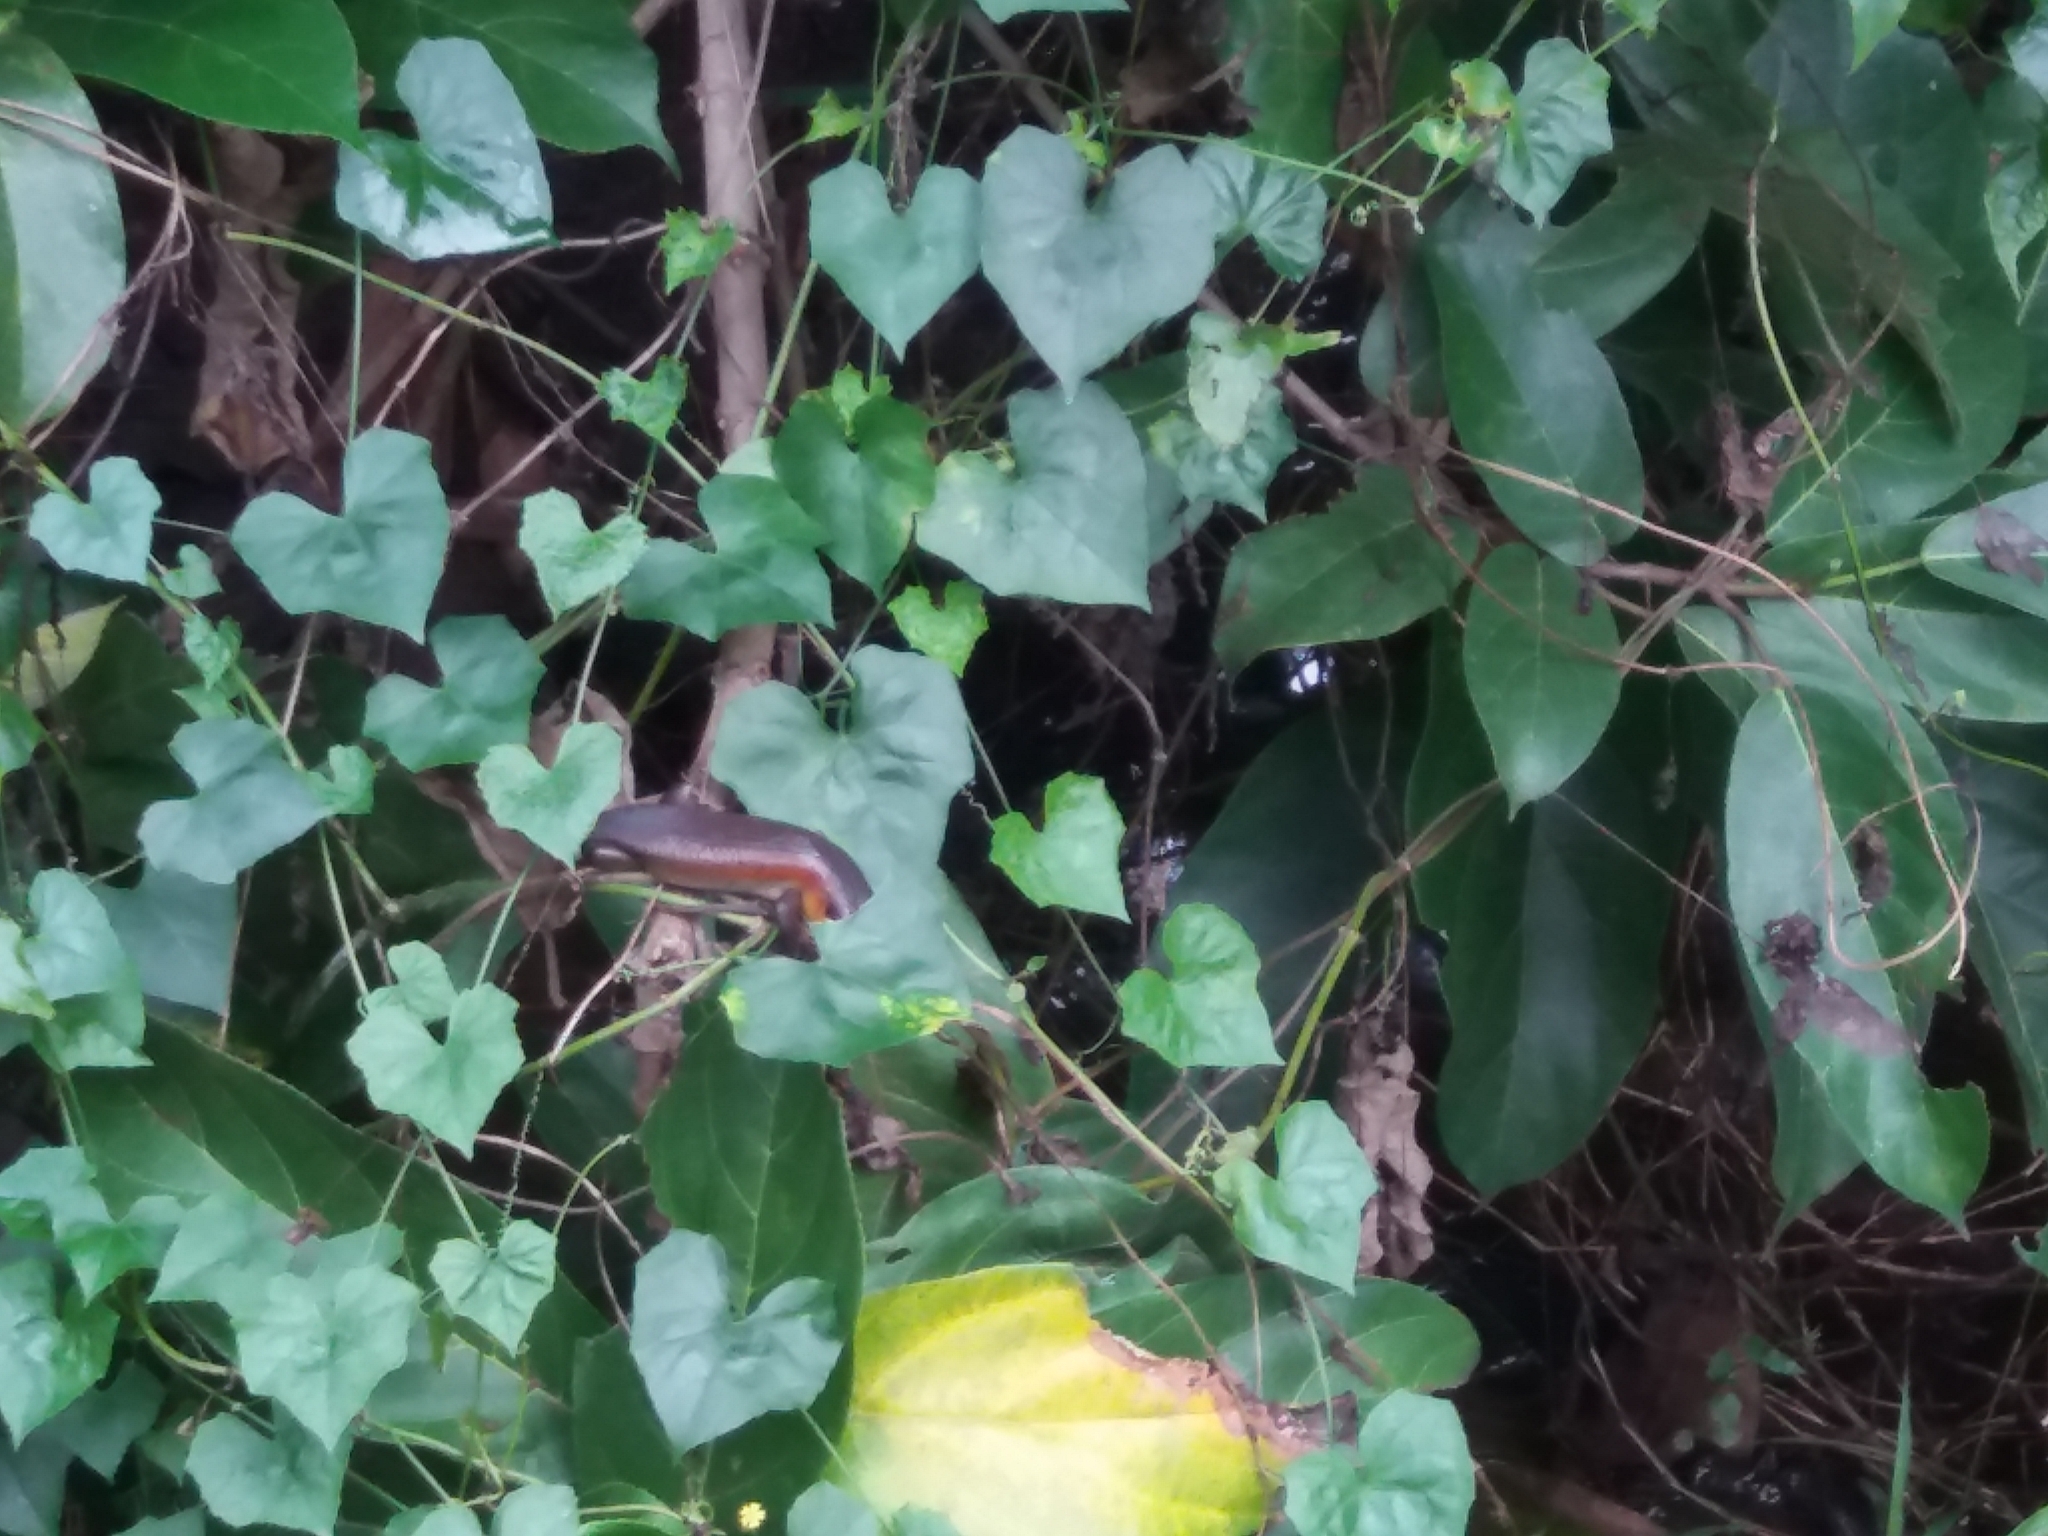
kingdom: Animalia
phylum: Chordata
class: Squamata
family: Scincidae
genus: Eutropis
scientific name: Eutropis multifasciata
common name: Common mabuya
